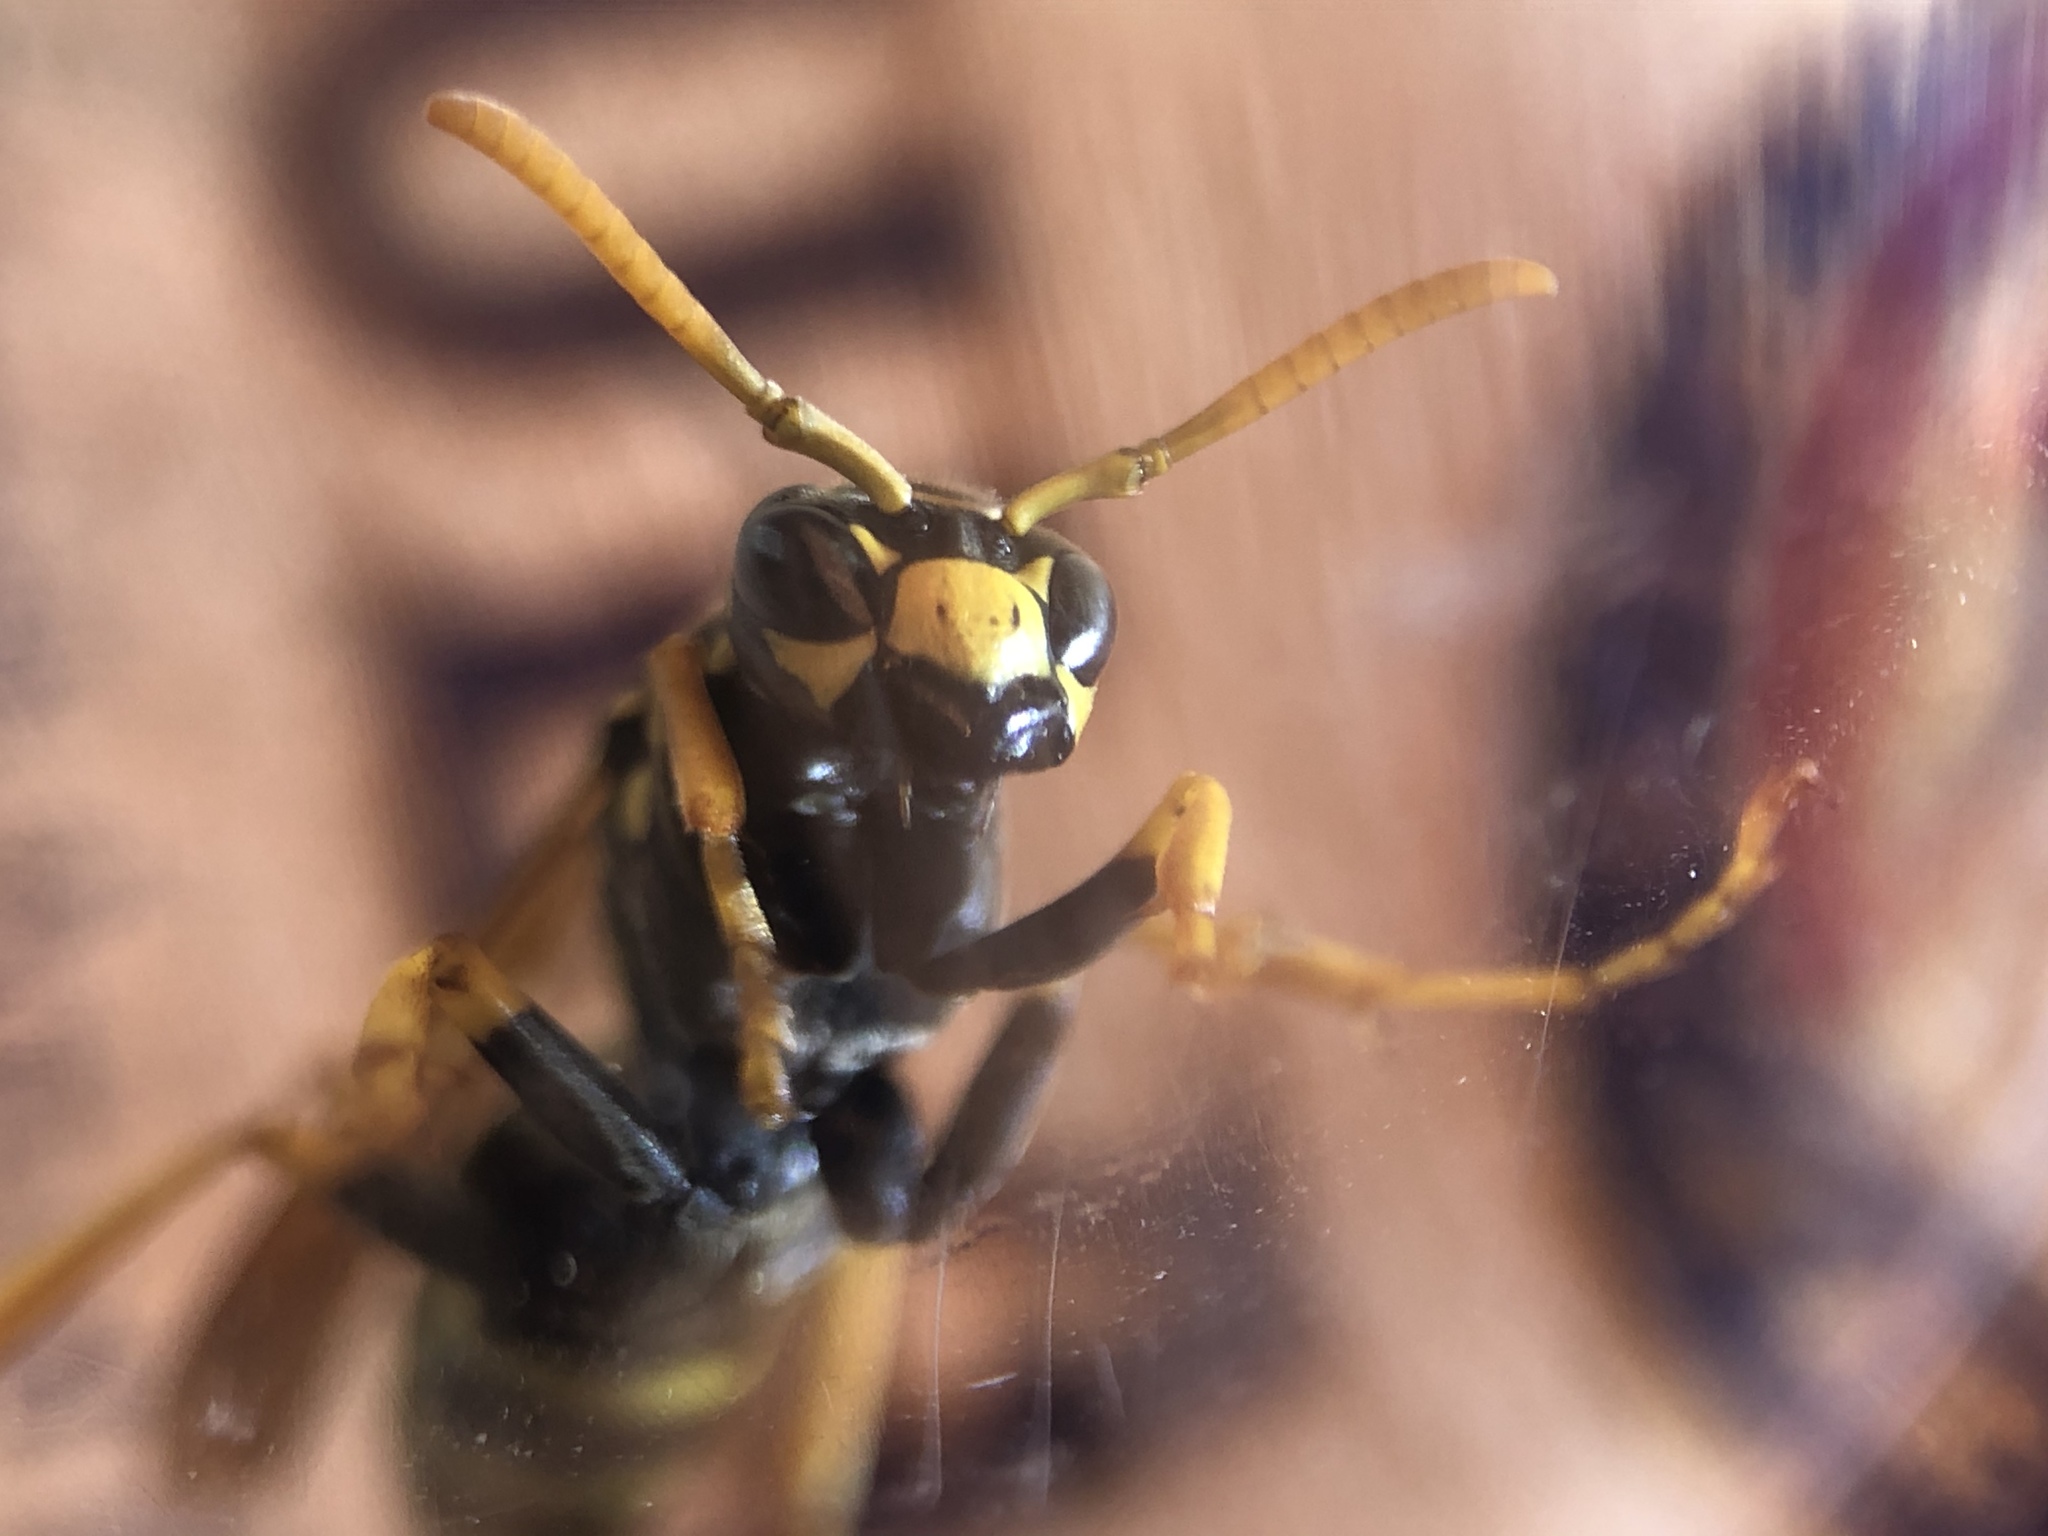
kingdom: Animalia
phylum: Arthropoda
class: Insecta
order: Hymenoptera
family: Eumenidae
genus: Polistes
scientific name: Polistes dominula
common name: Paper wasp
